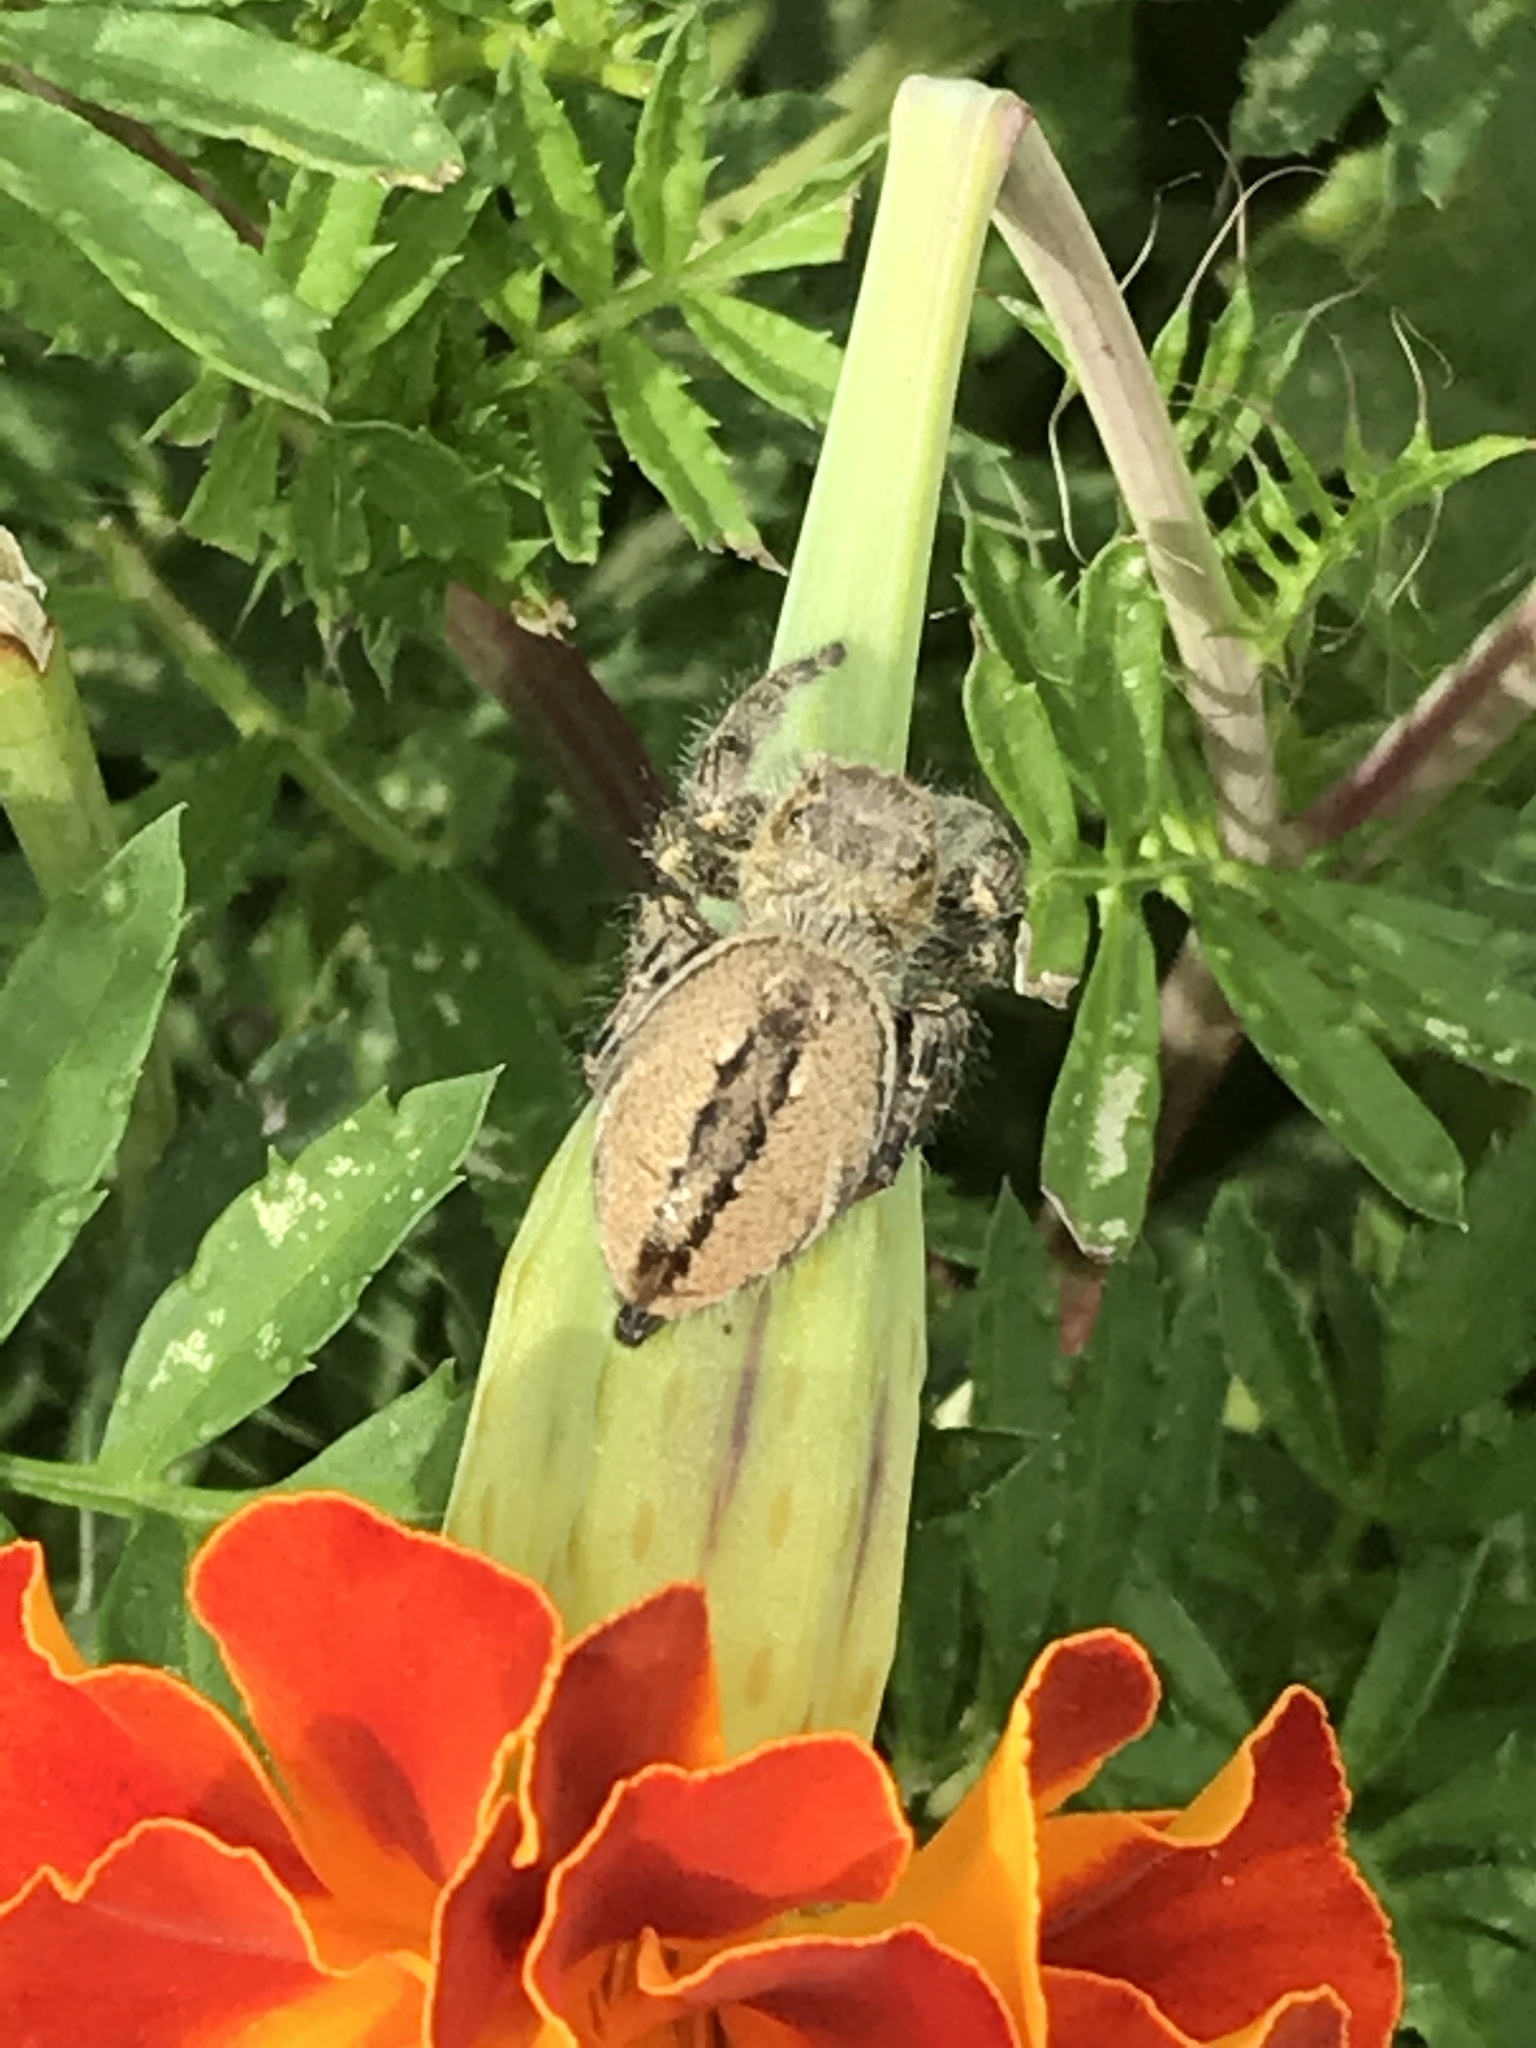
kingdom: Animalia
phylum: Arthropoda
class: Arachnida
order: Araneae
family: Salticidae
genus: Phidippus
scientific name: Phidippus clarus
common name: Brilliant jumping spider
